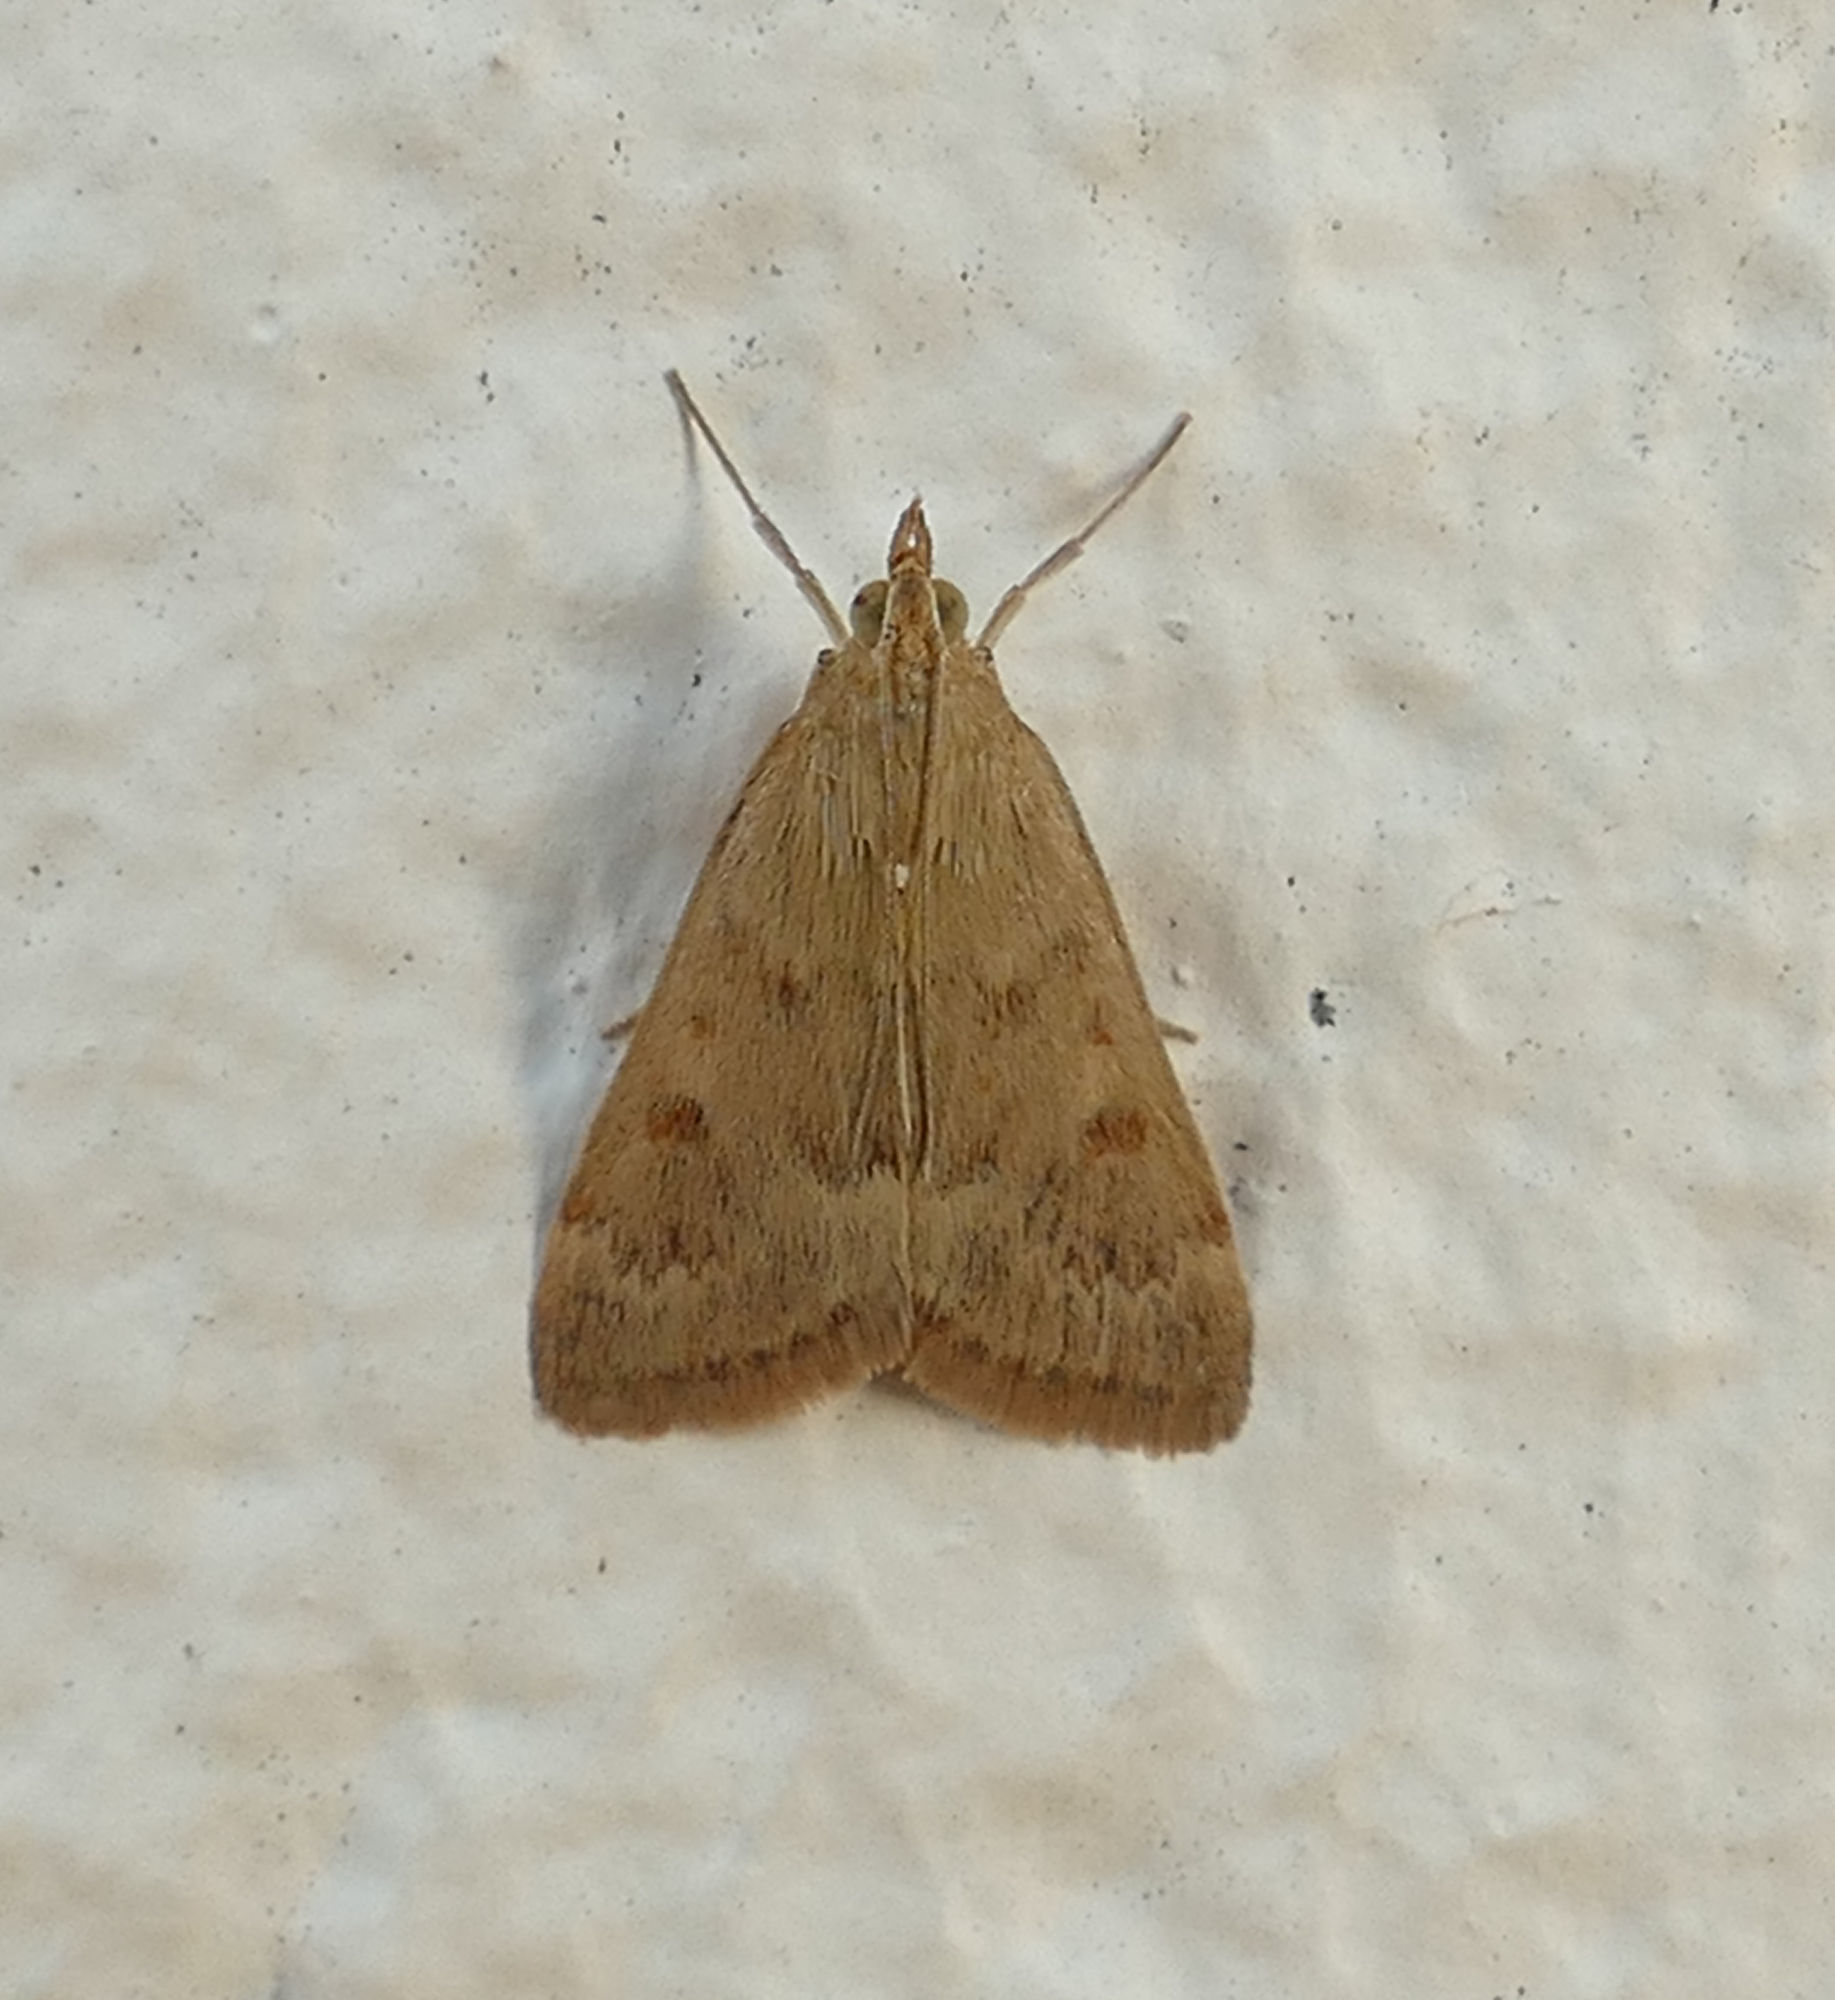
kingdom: Animalia
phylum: Arthropoda
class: Insecta
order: Lepidoptera
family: Crambidae
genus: Achyra
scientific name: Achyra rantalis
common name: Garden webworm
